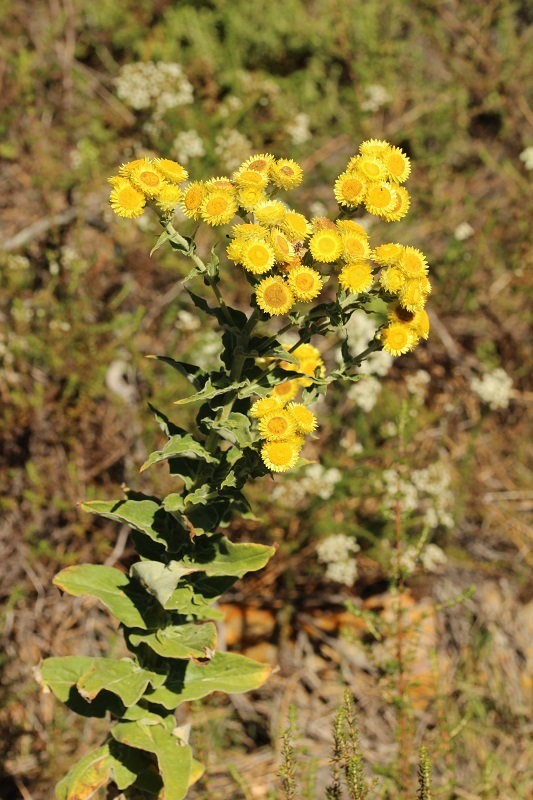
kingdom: Plantae
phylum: Tracheophyta
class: Magnoliopsida
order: Asterales
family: Asteraceae
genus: Helichrysum
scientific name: Helichrysum foetidum
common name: Stinking everlasting
